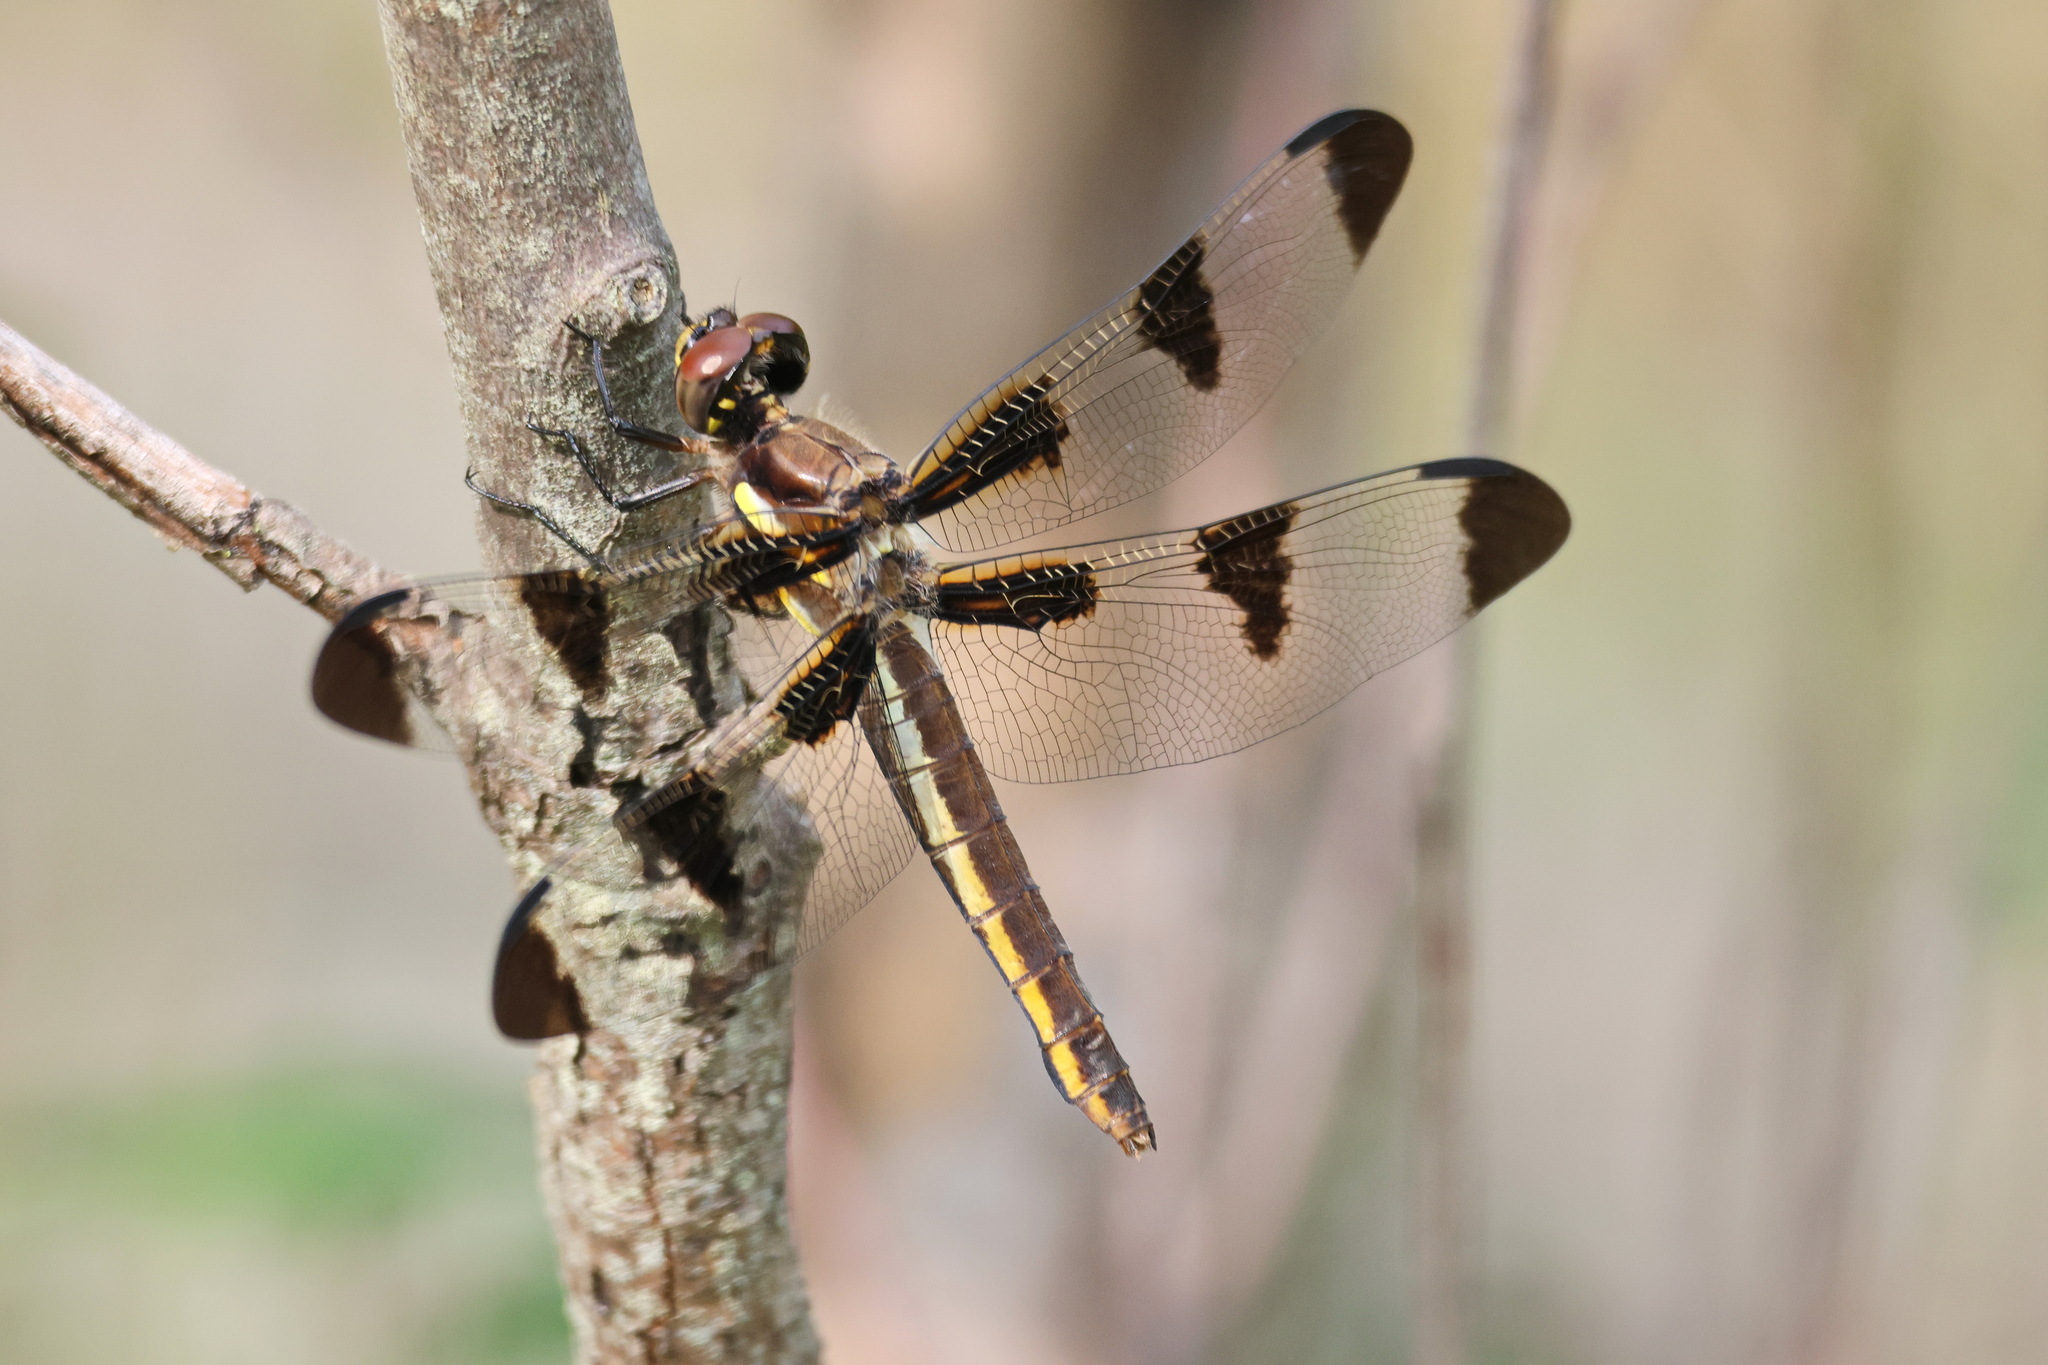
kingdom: Animalia
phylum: Arthropoda
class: Insecta
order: Odonata
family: Libellulidae
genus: Libellula
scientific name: Libellula pulchella
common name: Twelve-spotted skimmer
